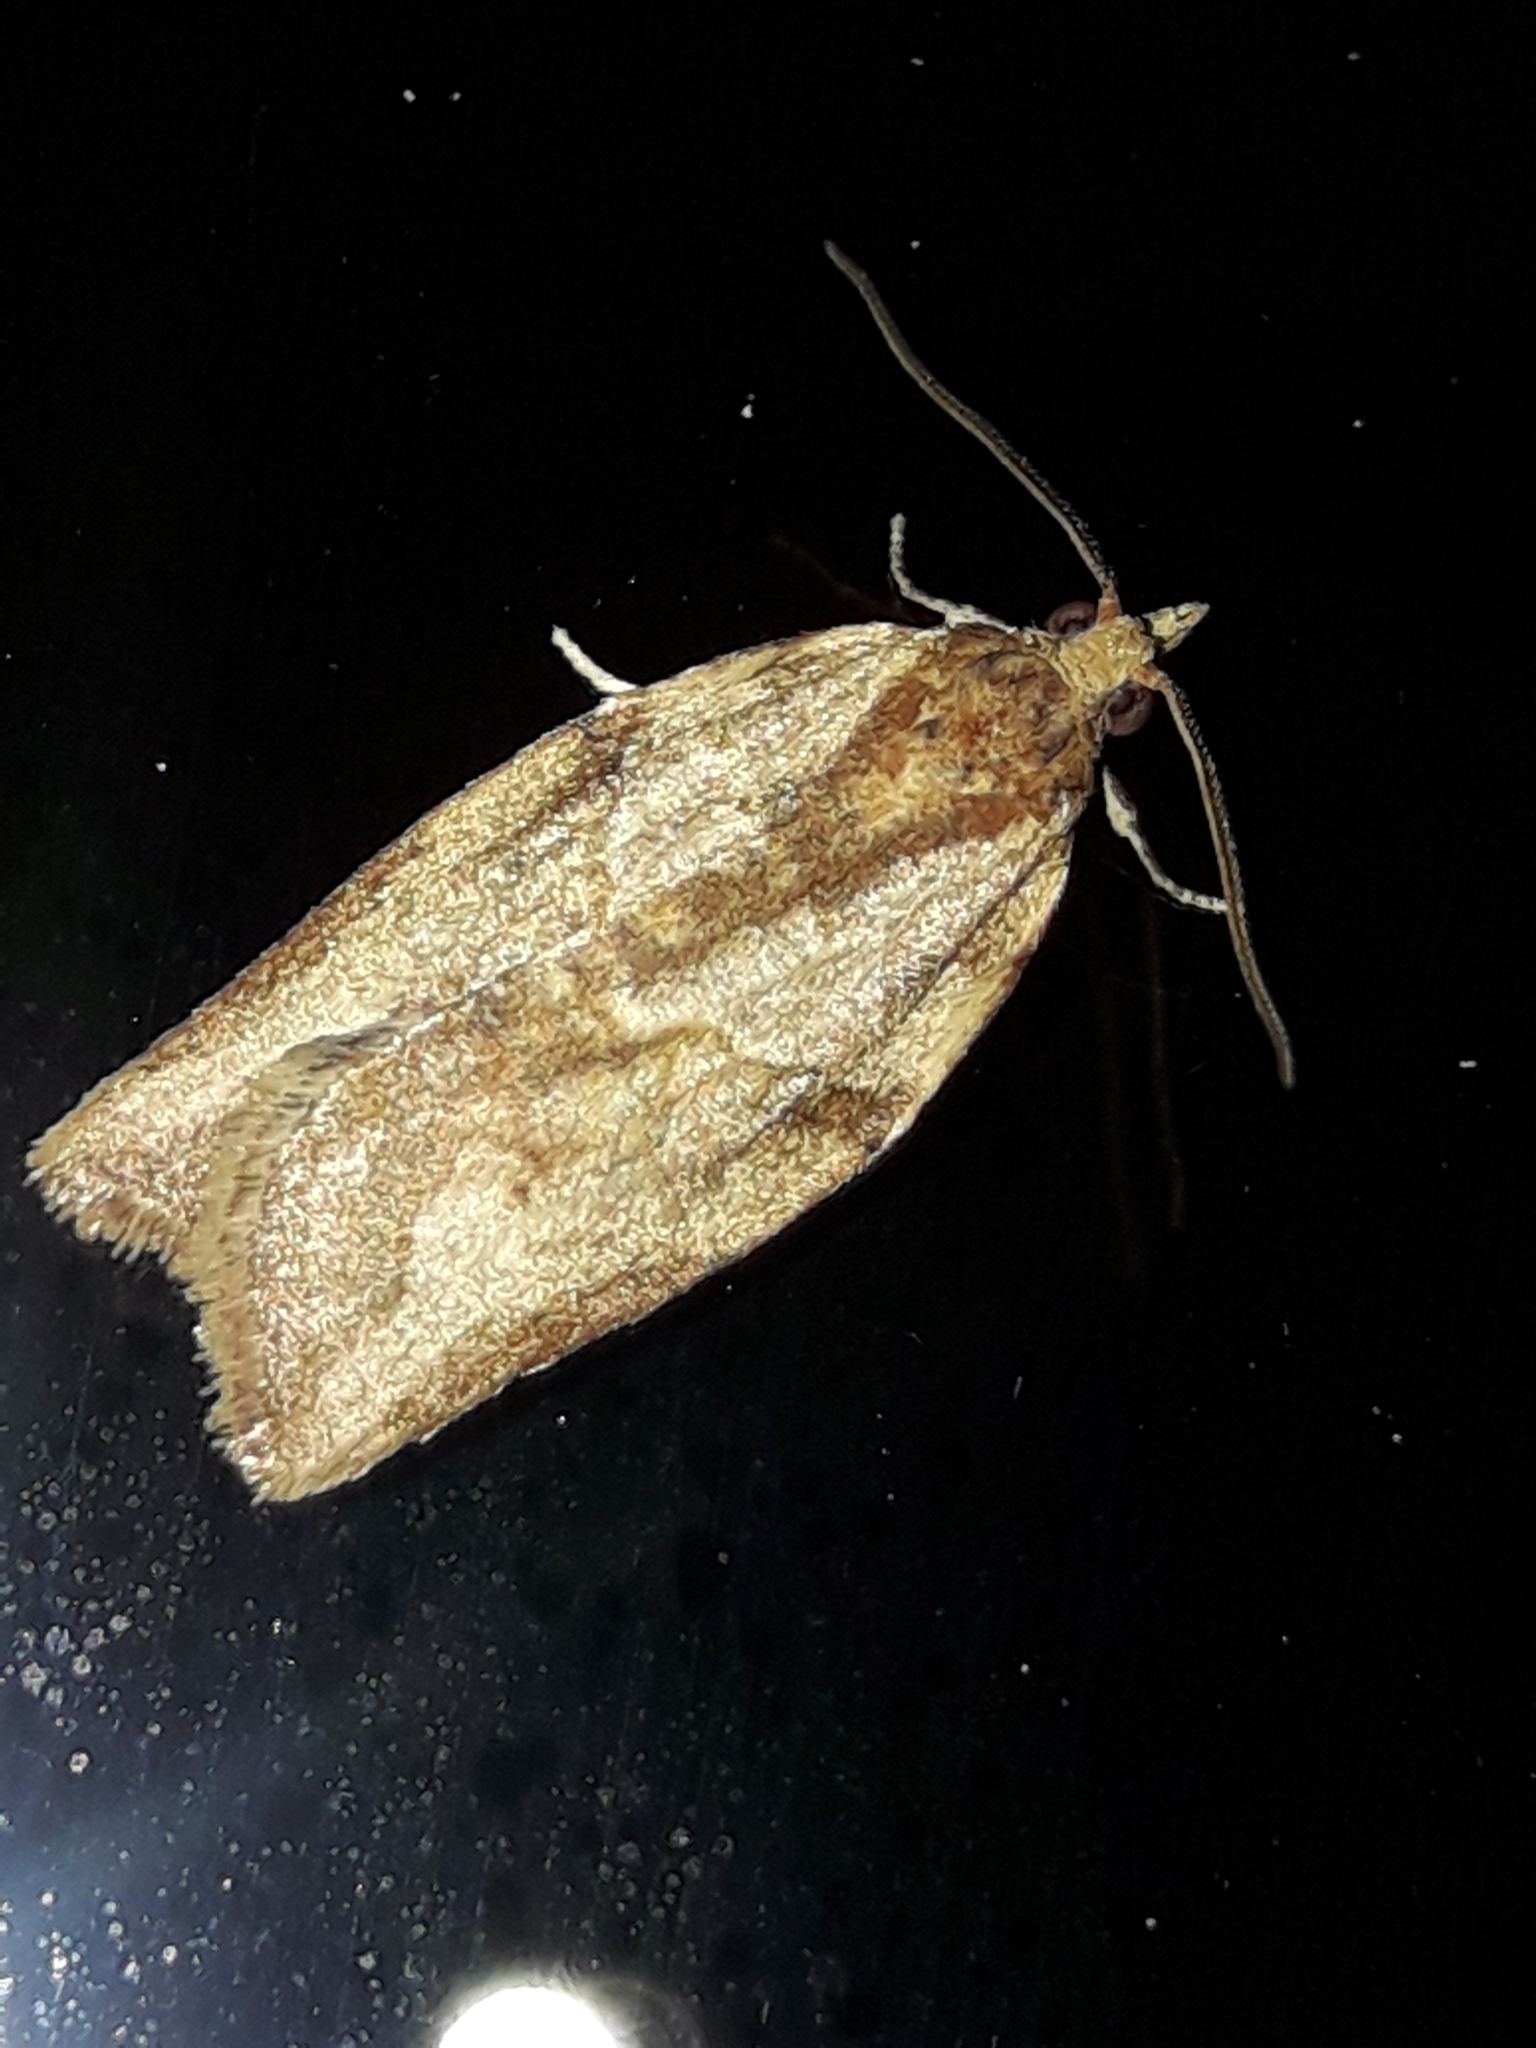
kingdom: Animalia
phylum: Arthropoda
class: Insecta
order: Lepidoptera
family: Tortricidae
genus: Epiphyas
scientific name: Epiphyas postvittana
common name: Light brown apple moth
